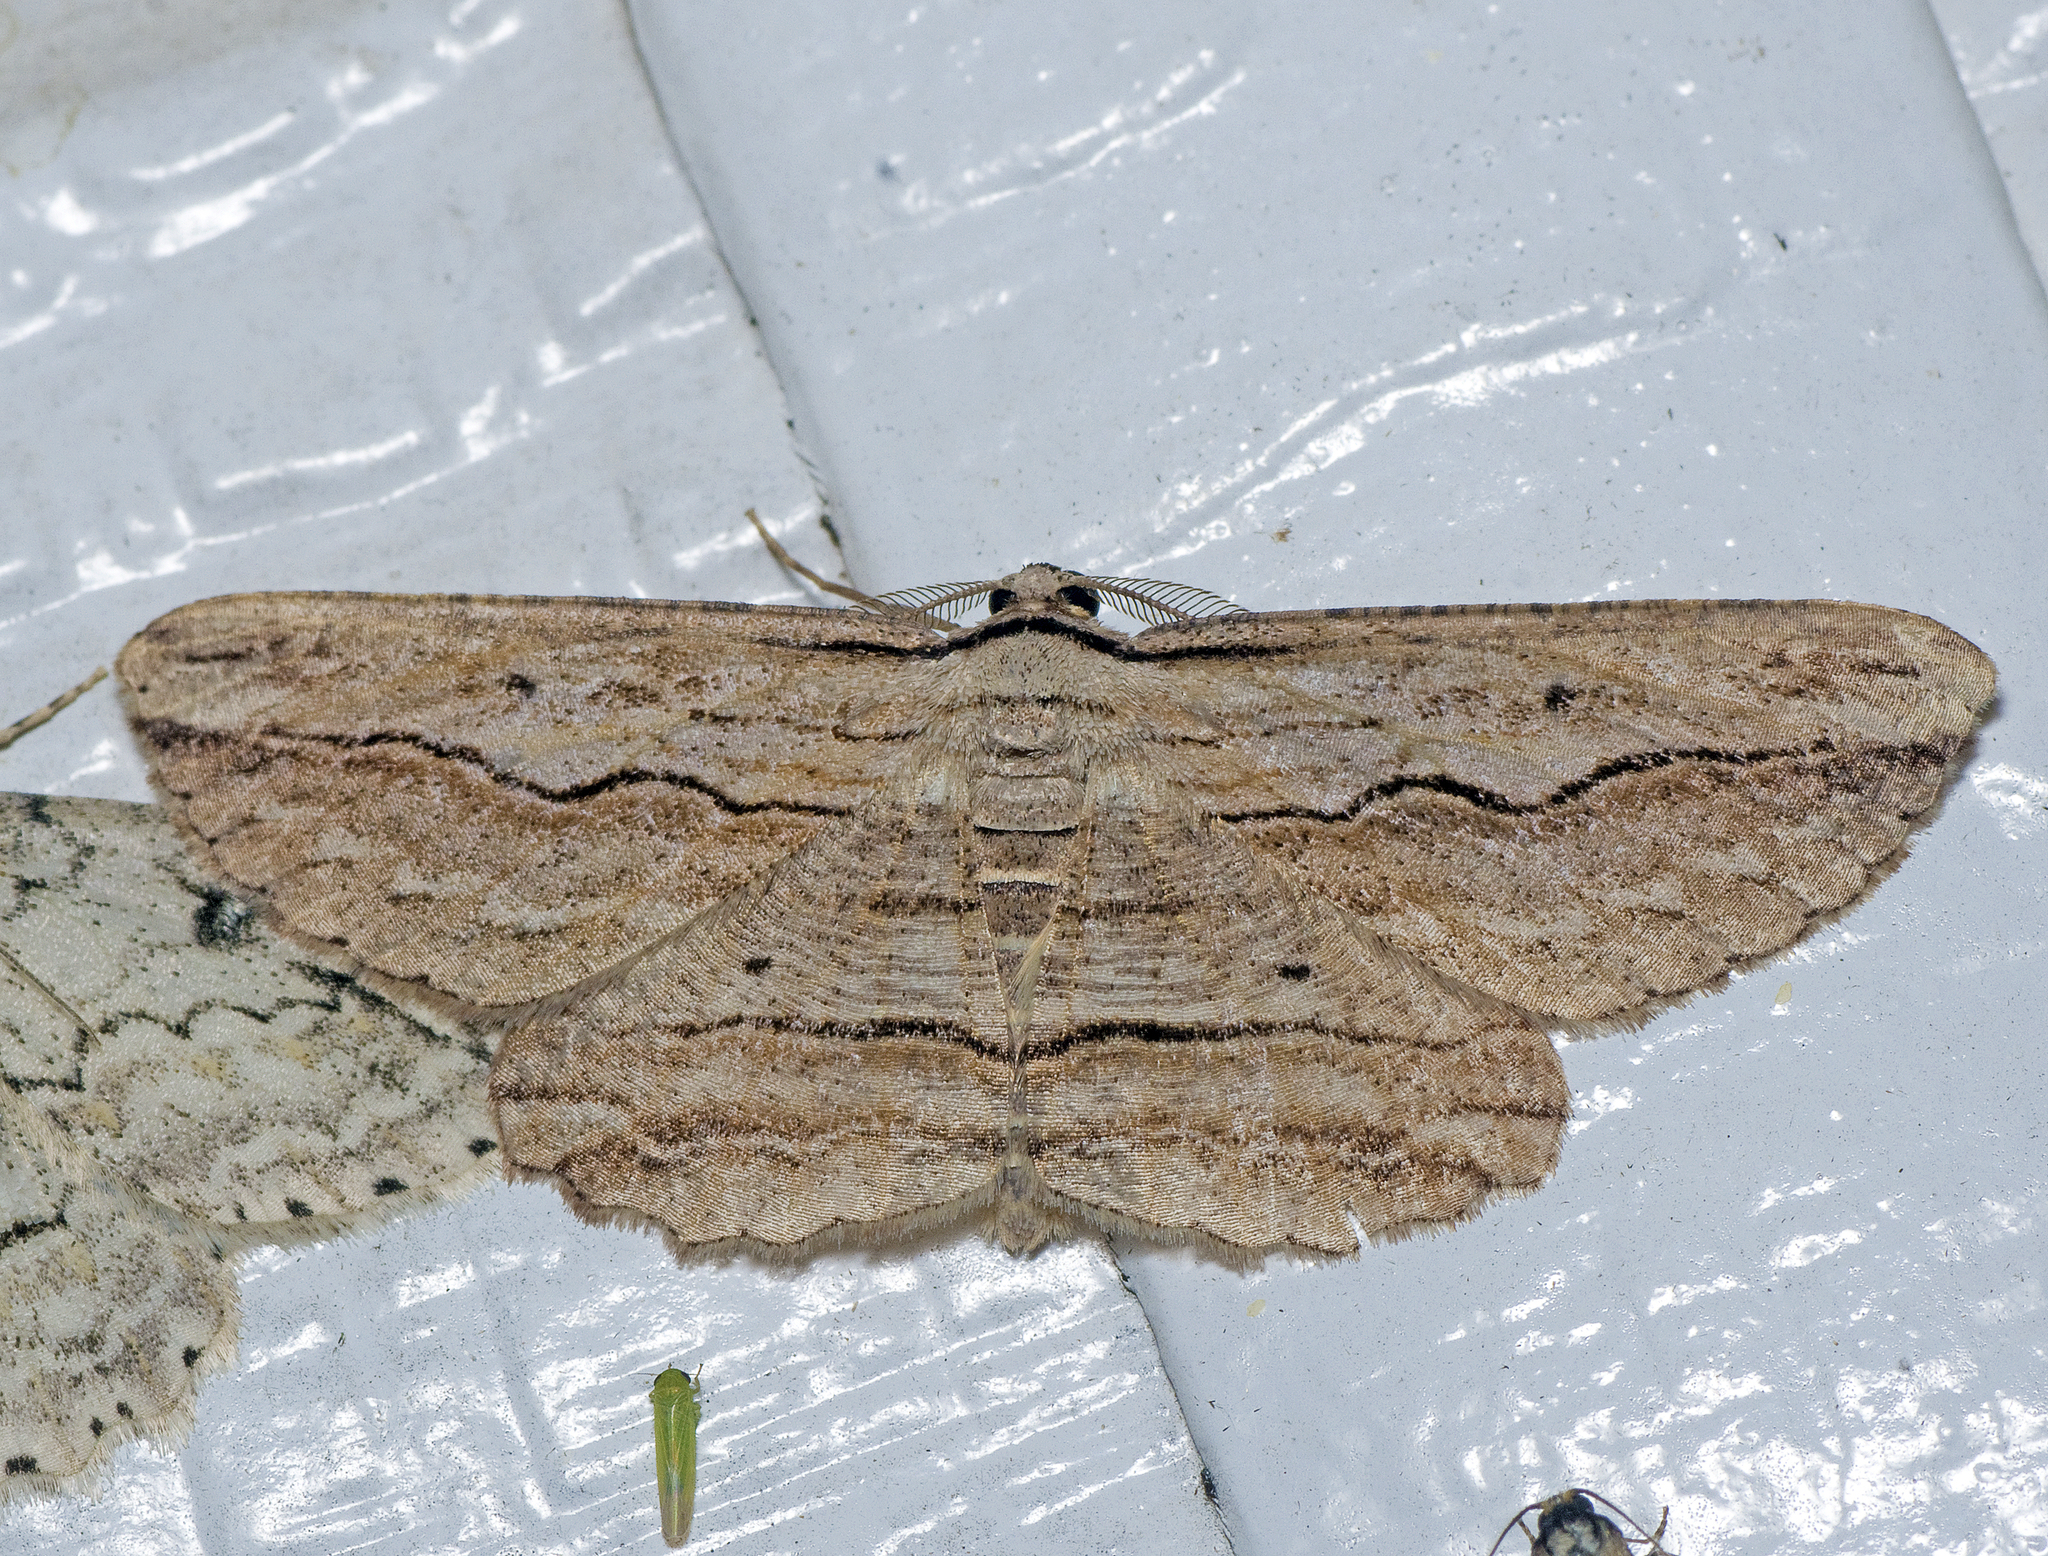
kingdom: Animalia
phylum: Arthropoda
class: Insecta
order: Lepidoptera
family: Geometridae
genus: Euphronarcha
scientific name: Euphronarcha luxaria
